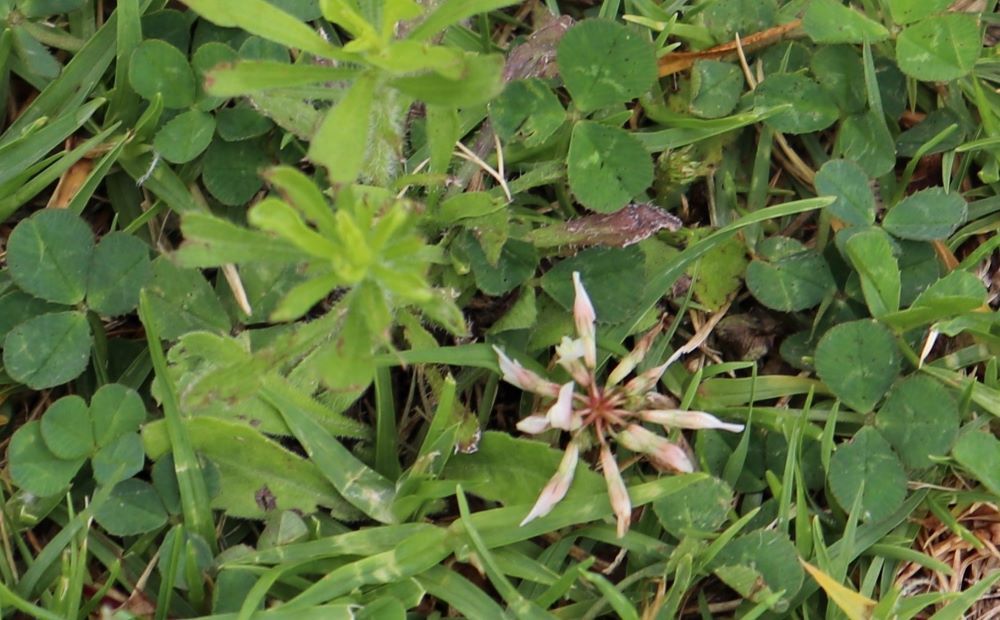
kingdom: Plantae
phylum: Tracheophyta
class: Magnoliopsida
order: Fabales
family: Fabaceae
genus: Trifolium
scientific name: Trifolium repens
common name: White clover
